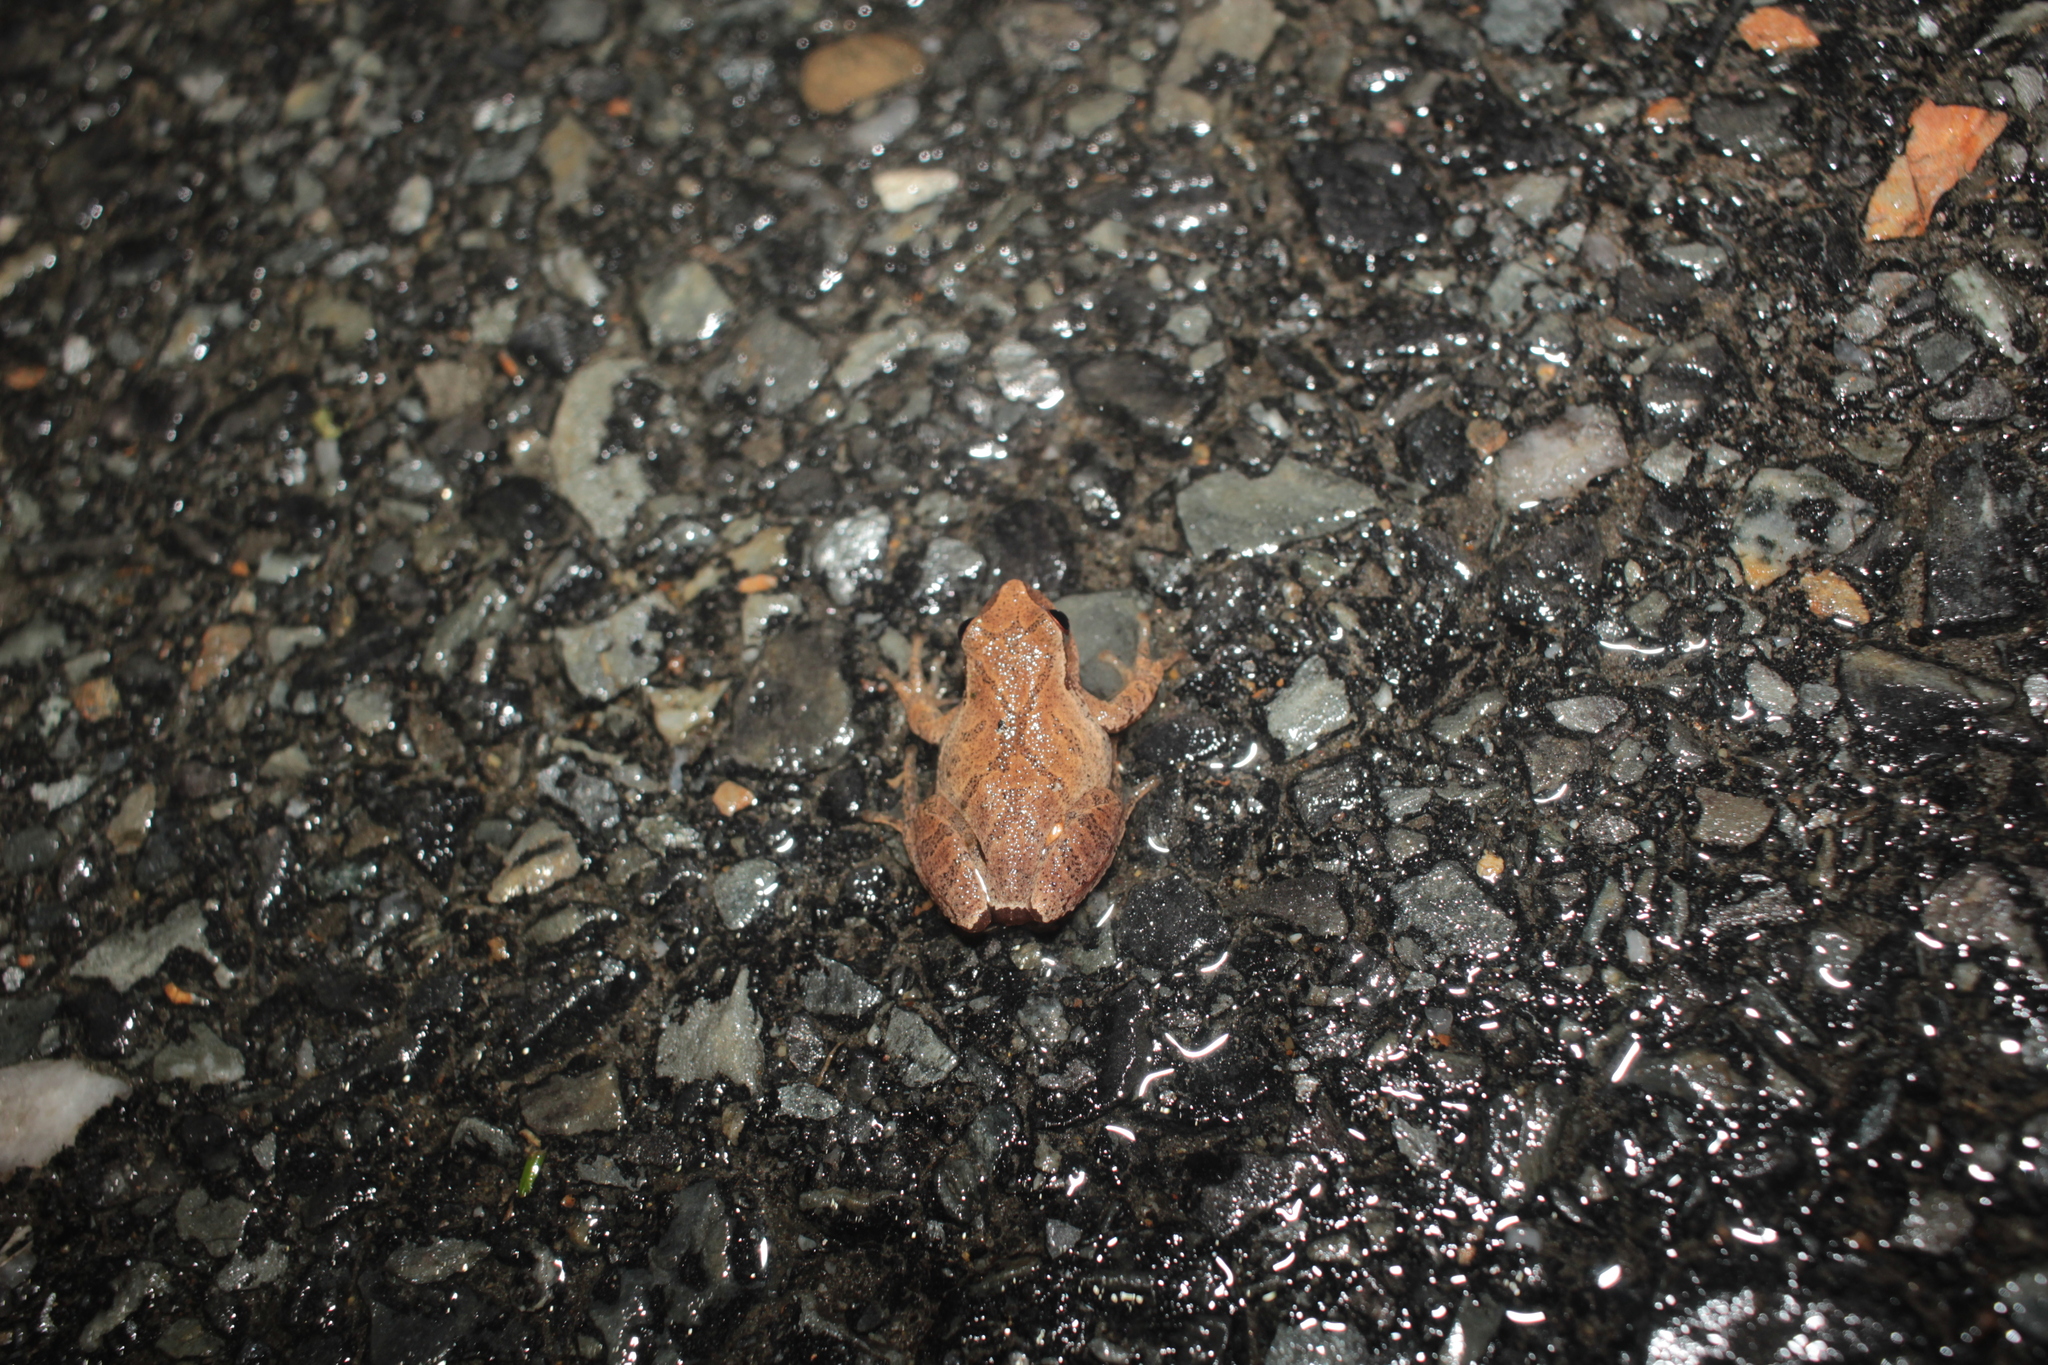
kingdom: Animalia
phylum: Chordata
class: Amphibia
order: Anura
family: Hylidae
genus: Pseudacris
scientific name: Pseudacris crucifer
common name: Spring peeper
